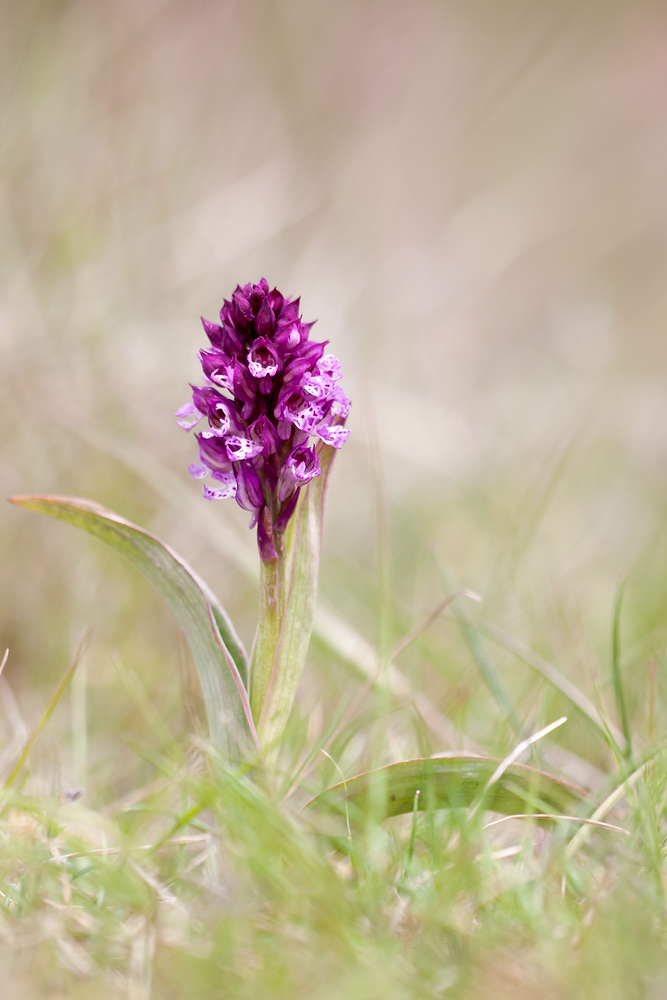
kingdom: Plantae
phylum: Tracheophyta
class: Liliopsida
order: Asparagales
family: Orchidaceae
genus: Neotinea
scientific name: Neotinea dietrichiana
